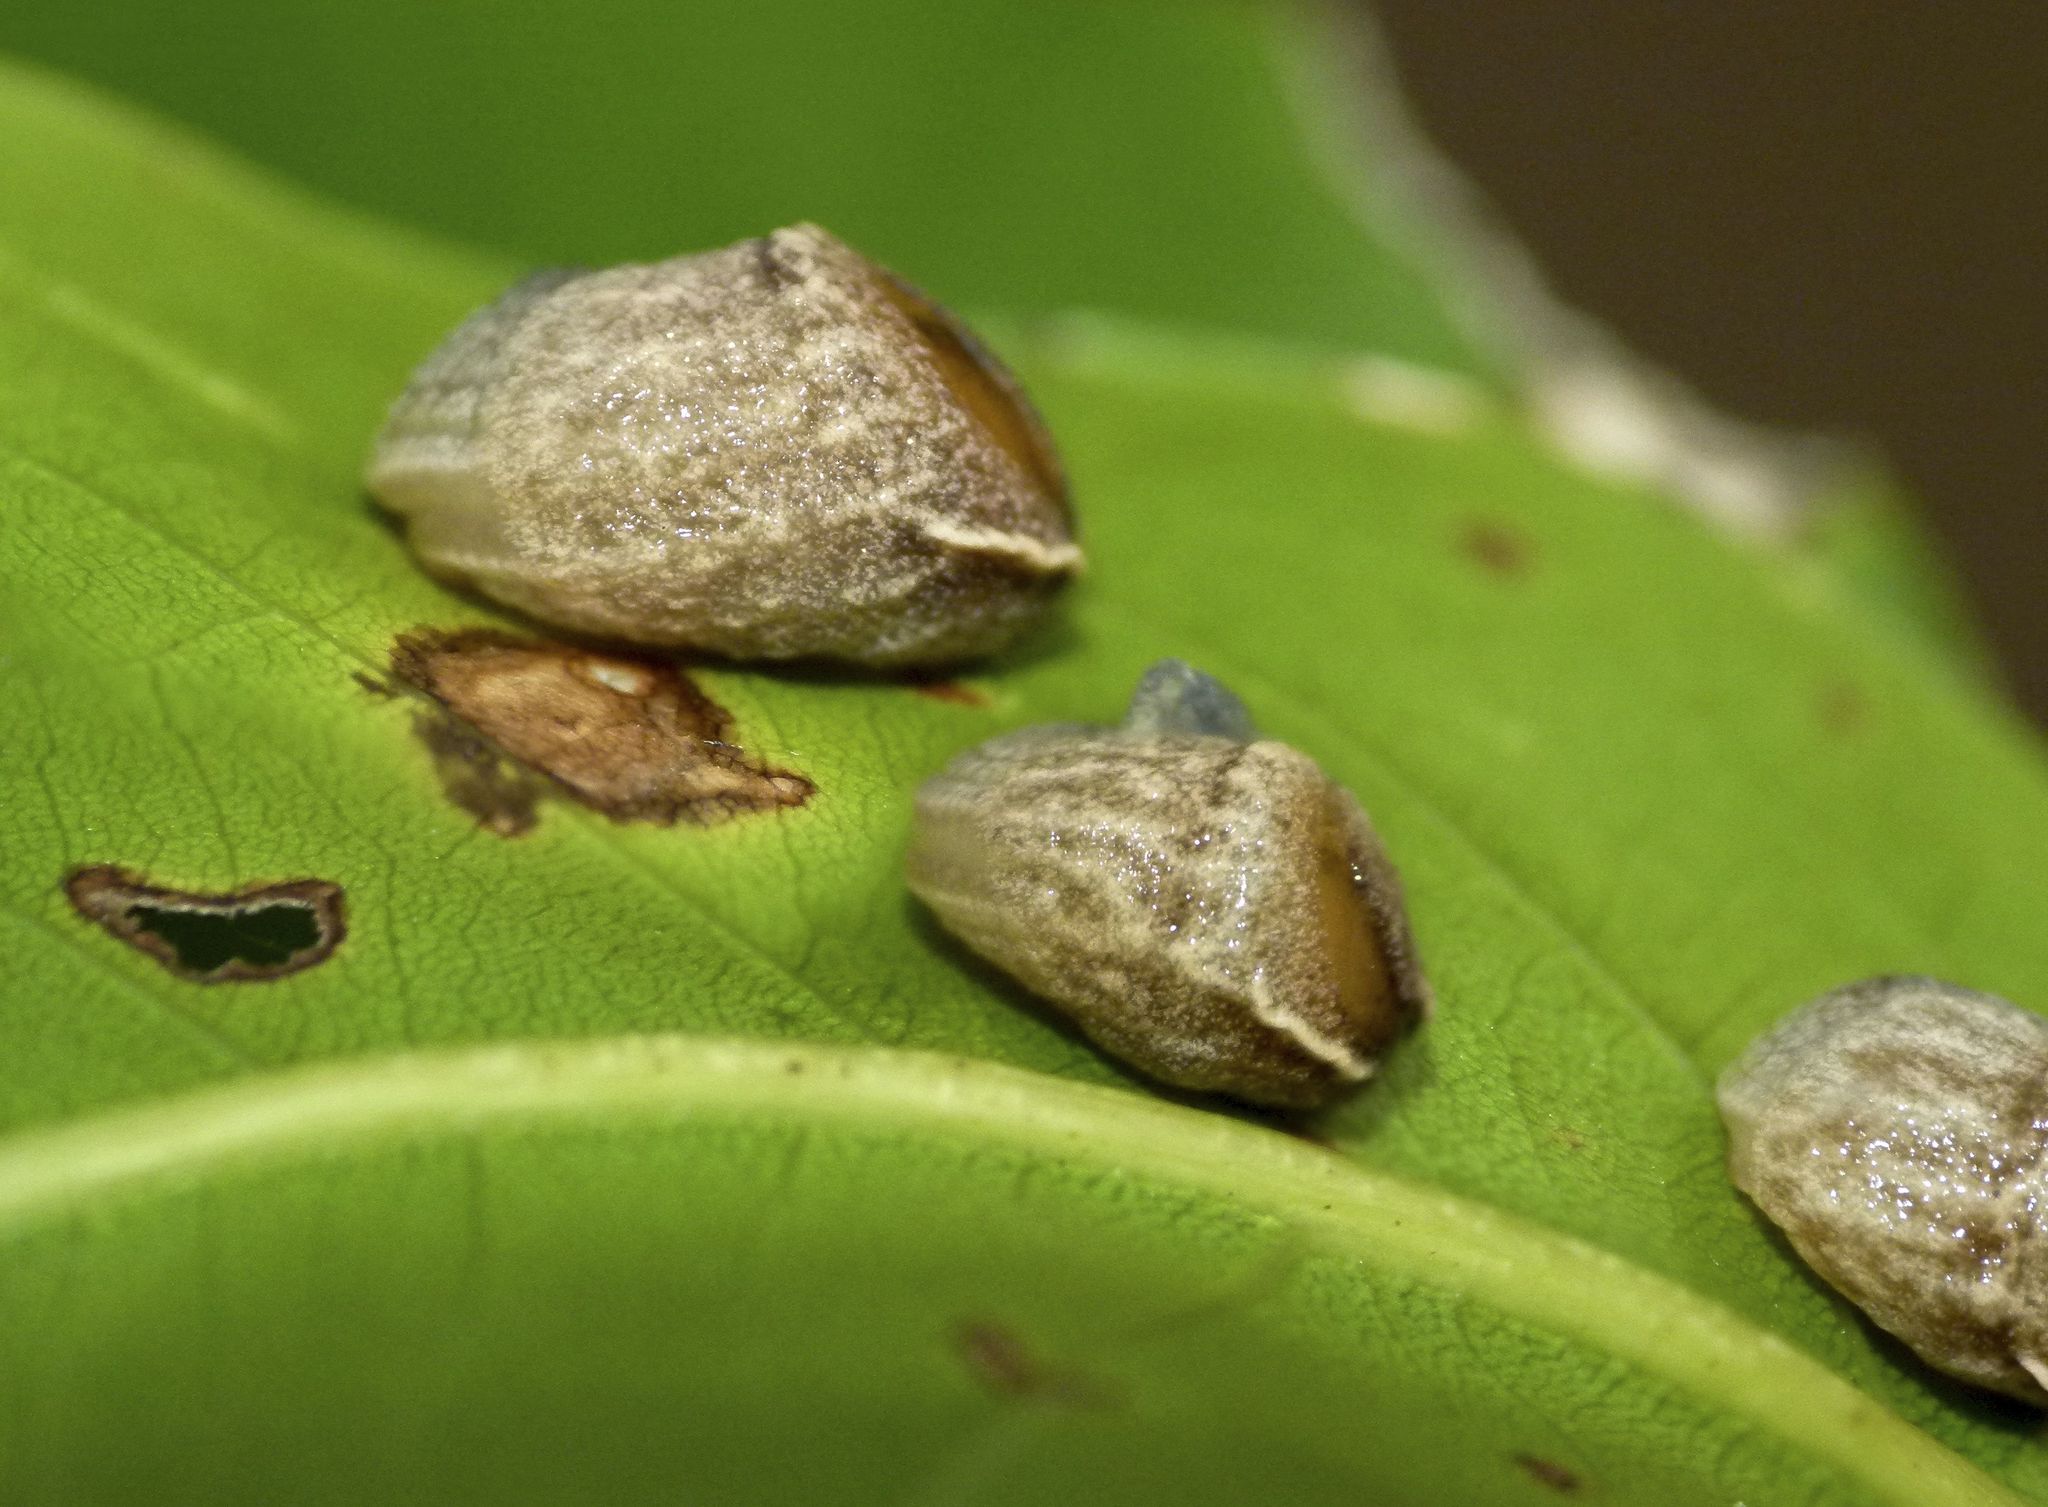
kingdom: Animalia
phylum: Mollusca
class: Gastropoda
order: Stylommatophora
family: Helicarionidae
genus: Ubiquitarion
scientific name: Ubiquitarion iridis
